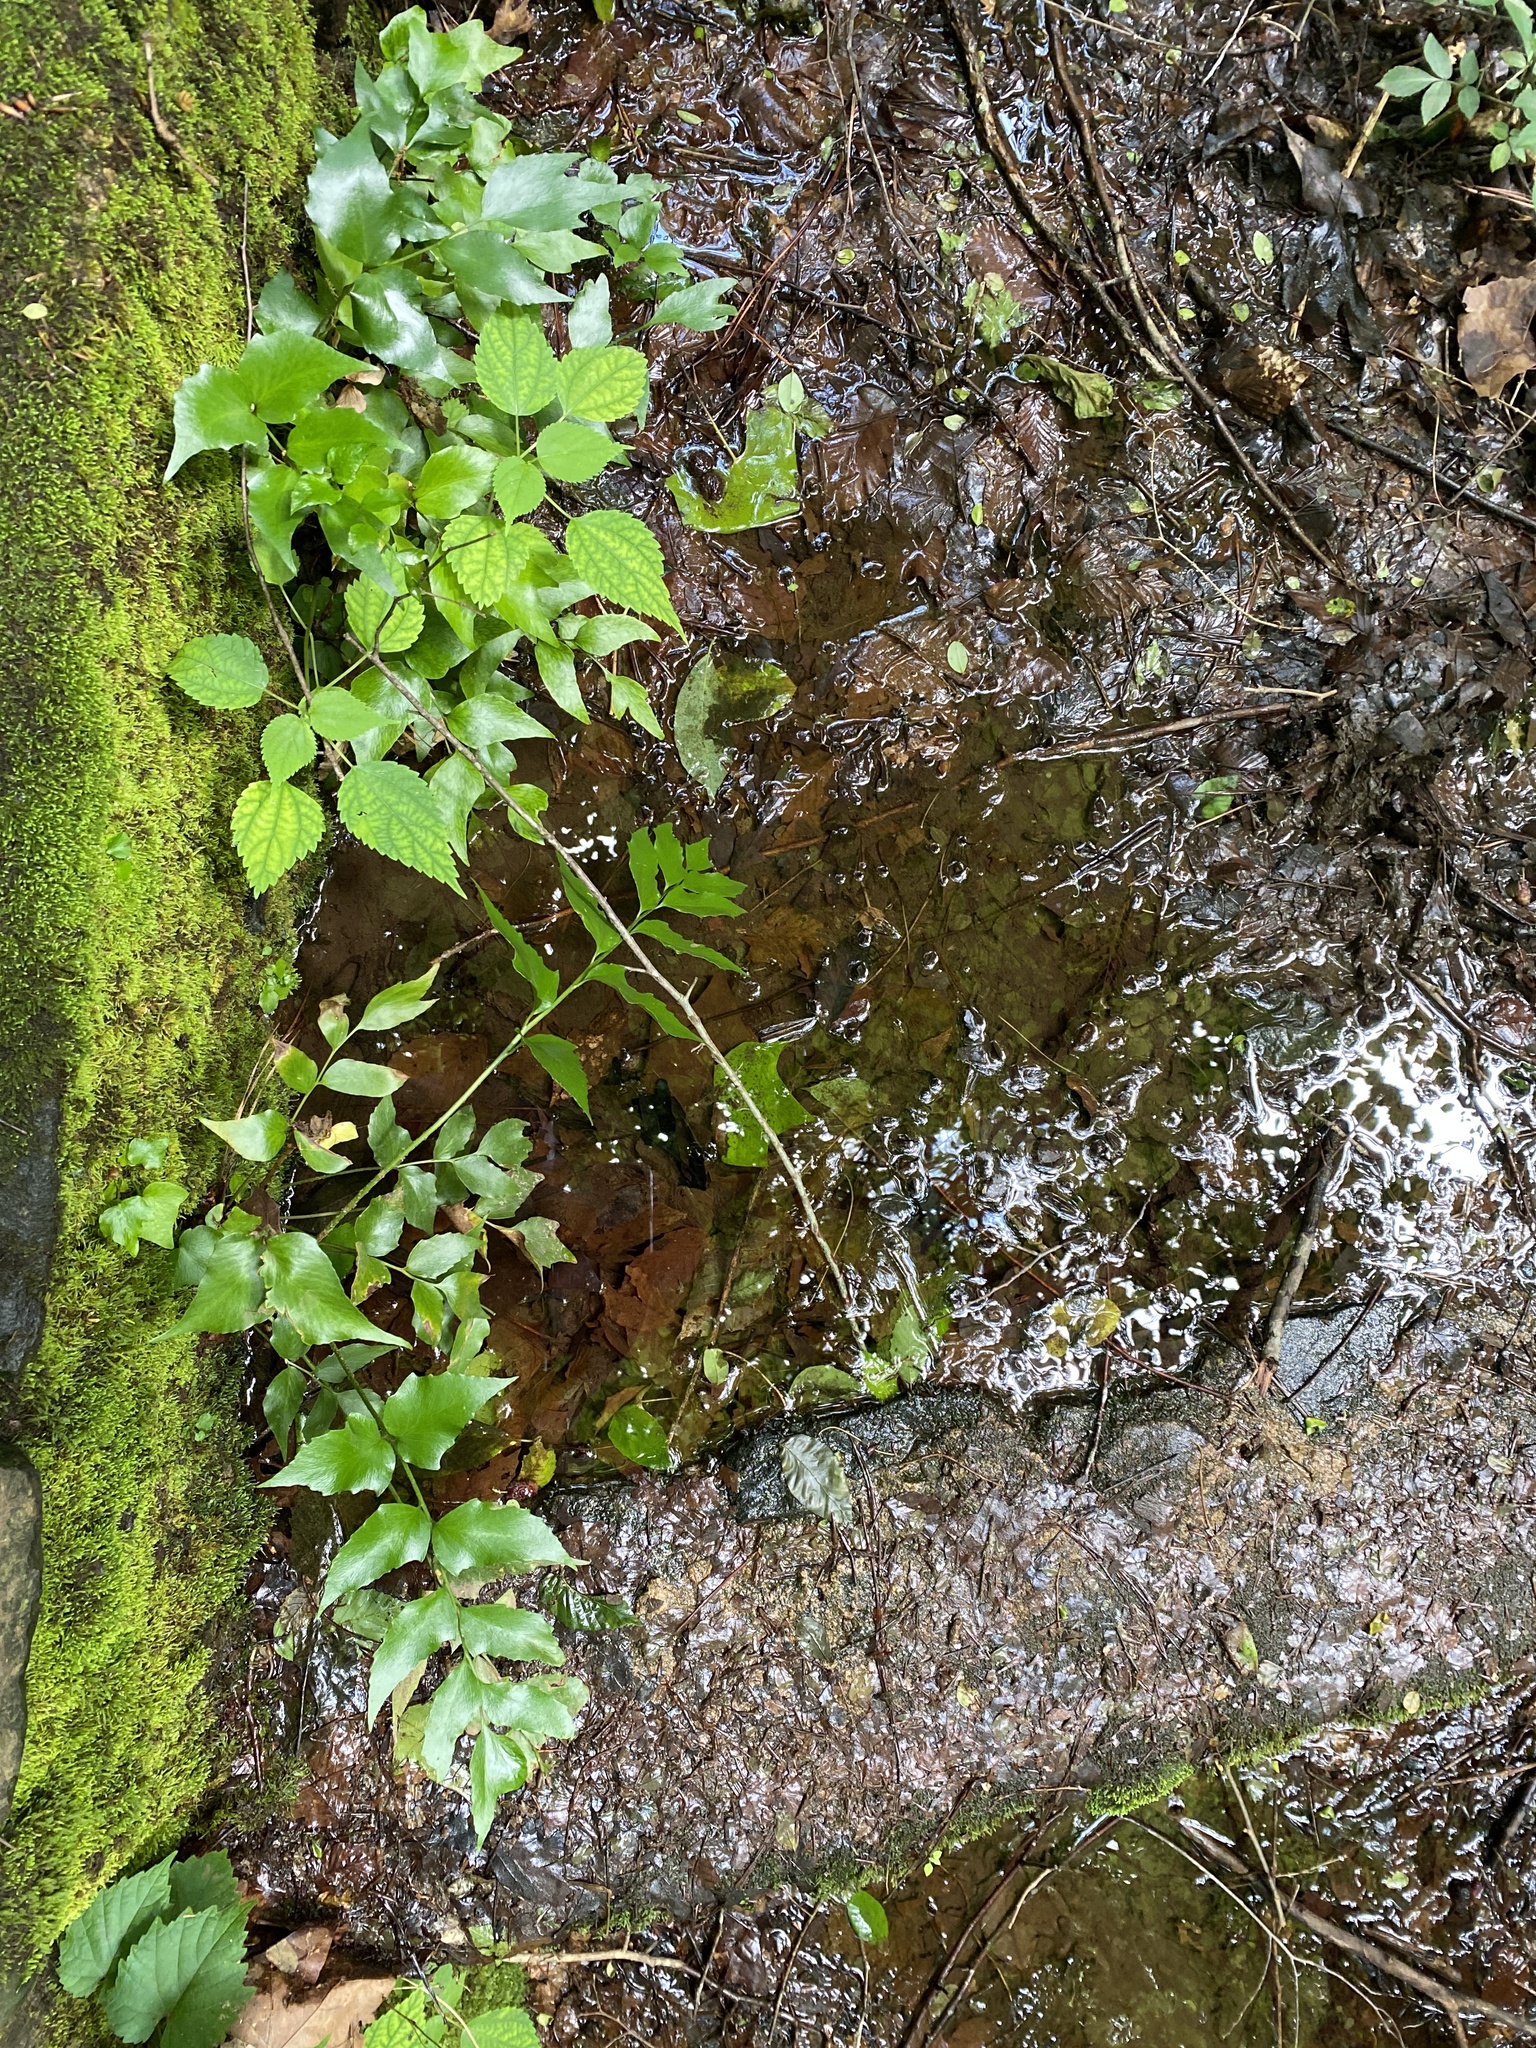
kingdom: Plantae
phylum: Tracheophyta
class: Polypodiopsida
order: Polypodiales
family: Dryopteridaceae
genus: Cyrtomium
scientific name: Cyrtomium falcatum
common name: House holly-fern
